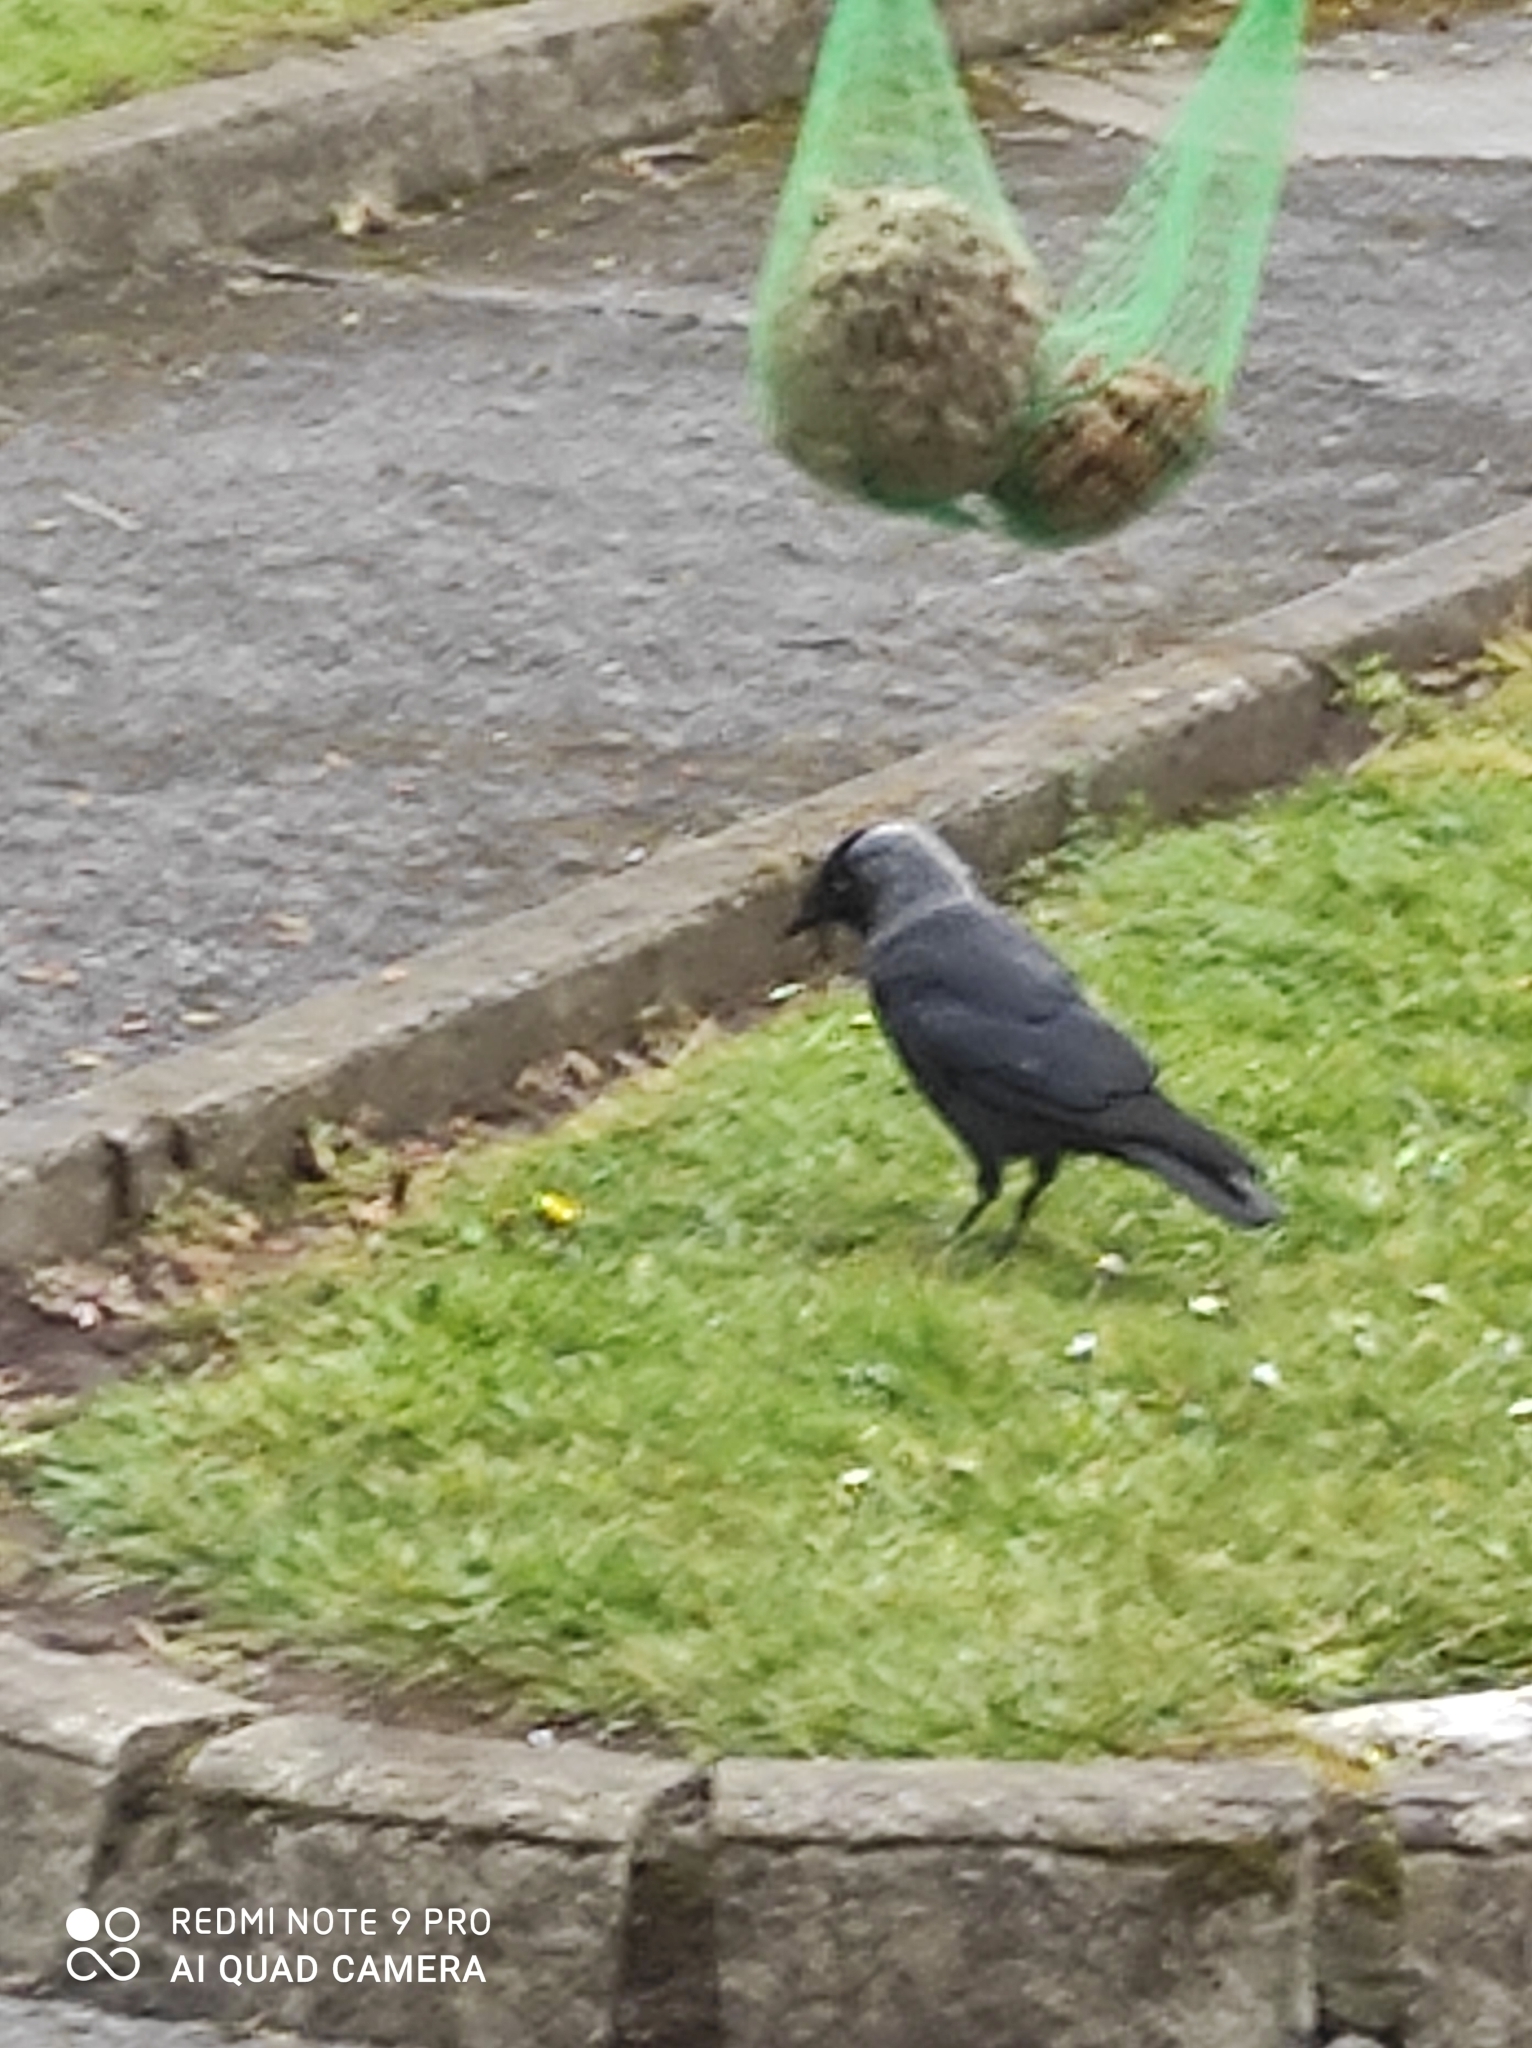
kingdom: Animalia
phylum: Chordata
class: Aves
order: Passeriformes
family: Corvidae
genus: Coloeus
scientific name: Coloeus monedula
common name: Western jackdaw
